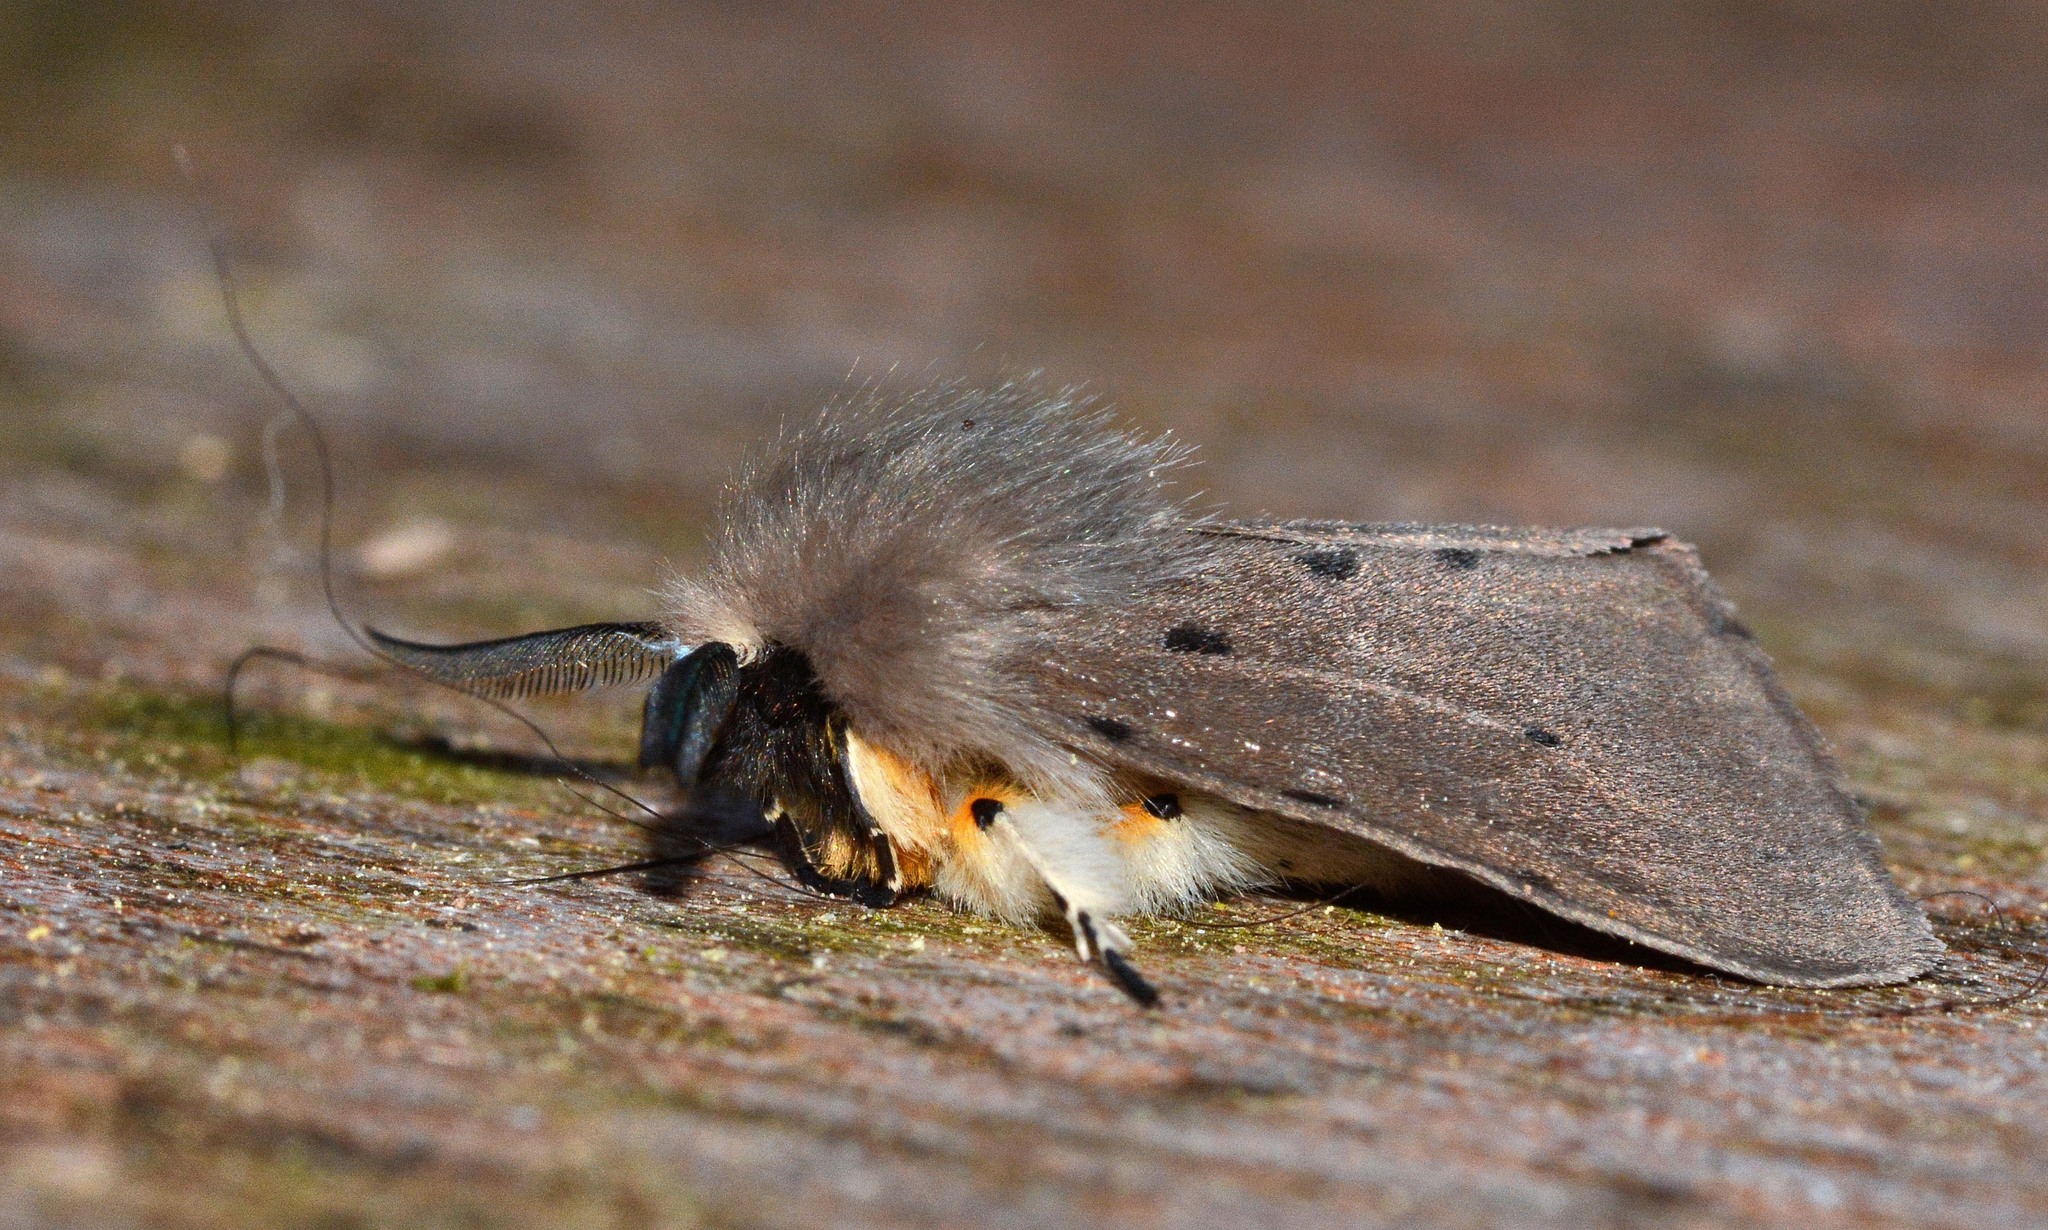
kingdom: Animalia
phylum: Arthropoda
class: Insecta
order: Lepidoptera
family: Erebidae
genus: Diaphora
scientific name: Diaphora mendica
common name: Muslin moth
